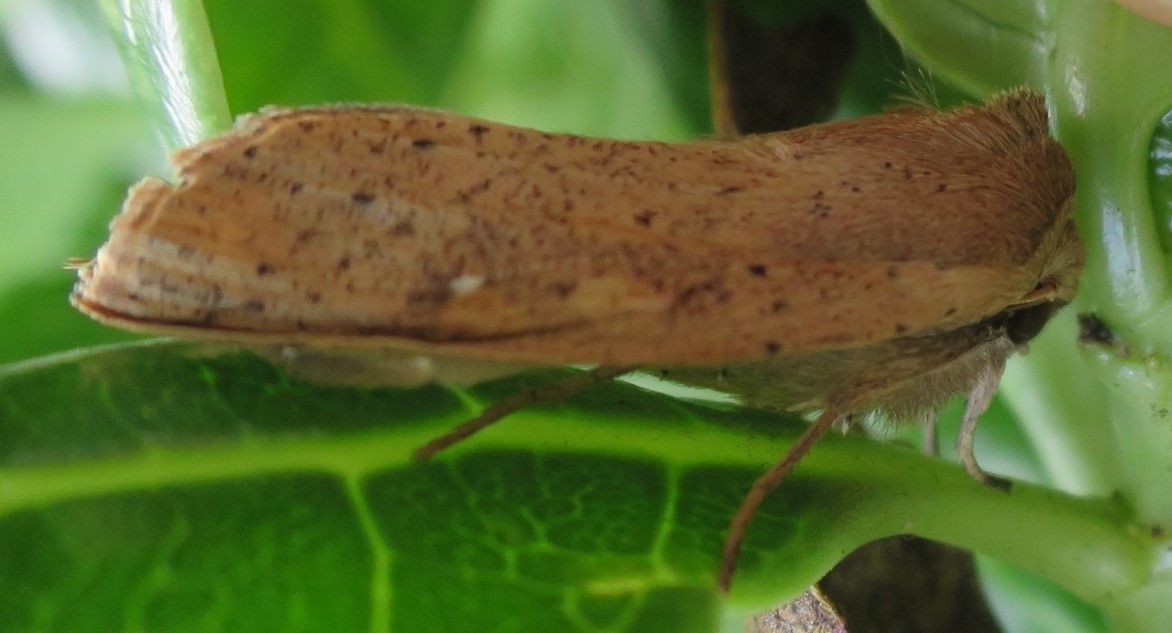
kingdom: Animalia
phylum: Arthropoda
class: Insecta
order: Lepidoptera
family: Noctuidae
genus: Mythimna
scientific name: Mythimna separata
